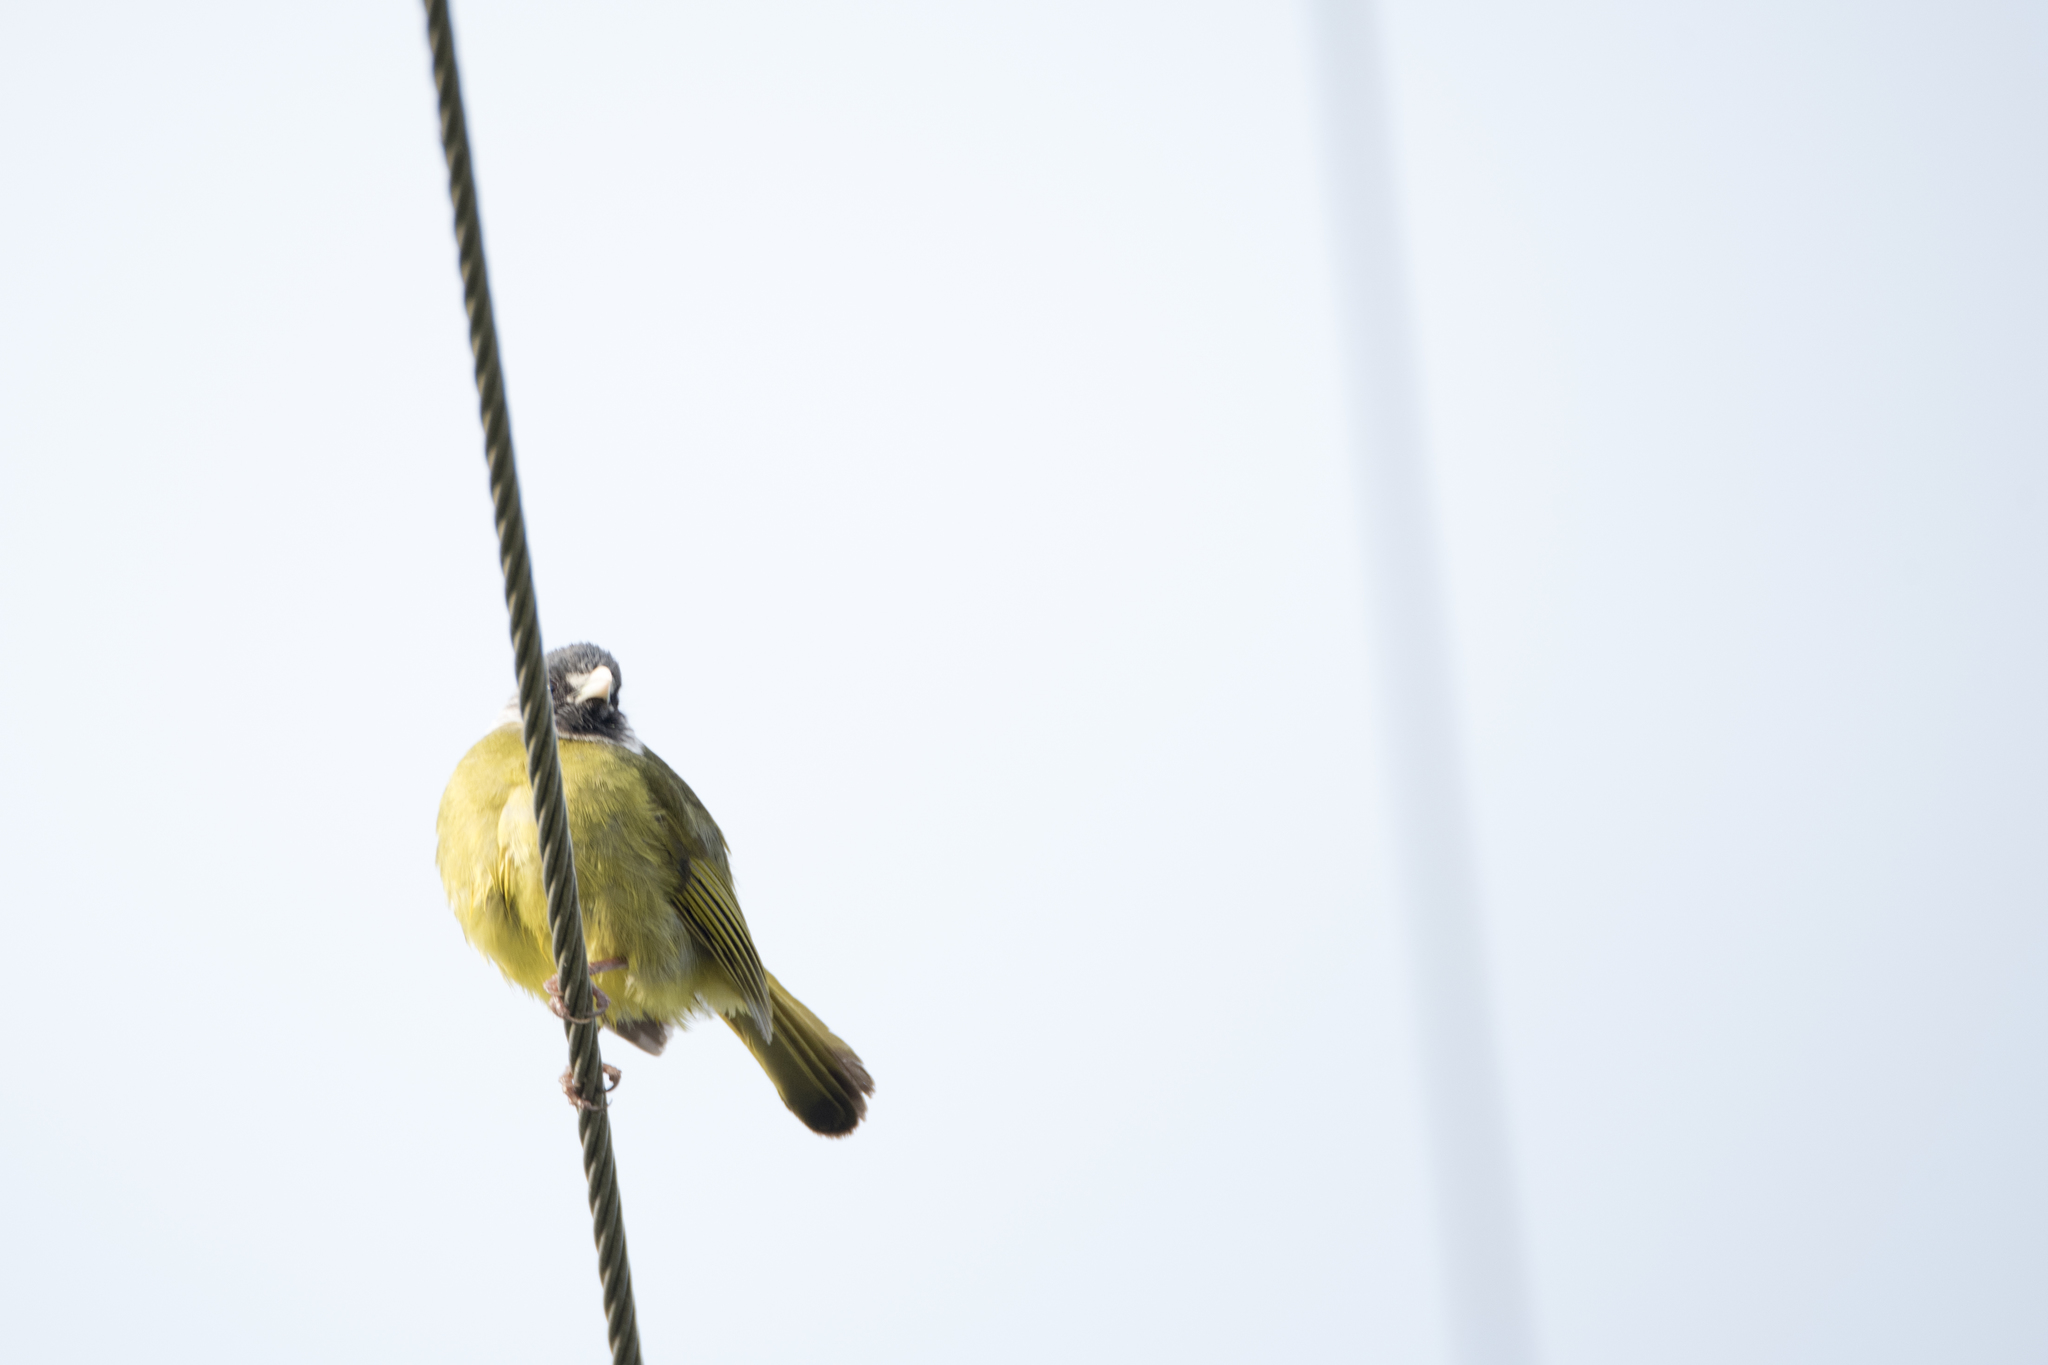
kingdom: Animalia
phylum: Chordata
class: Aves
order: Passeriformes
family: Pycnonotidae
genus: Spizixos
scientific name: Spizixos semitorques
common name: Collared finchbill
